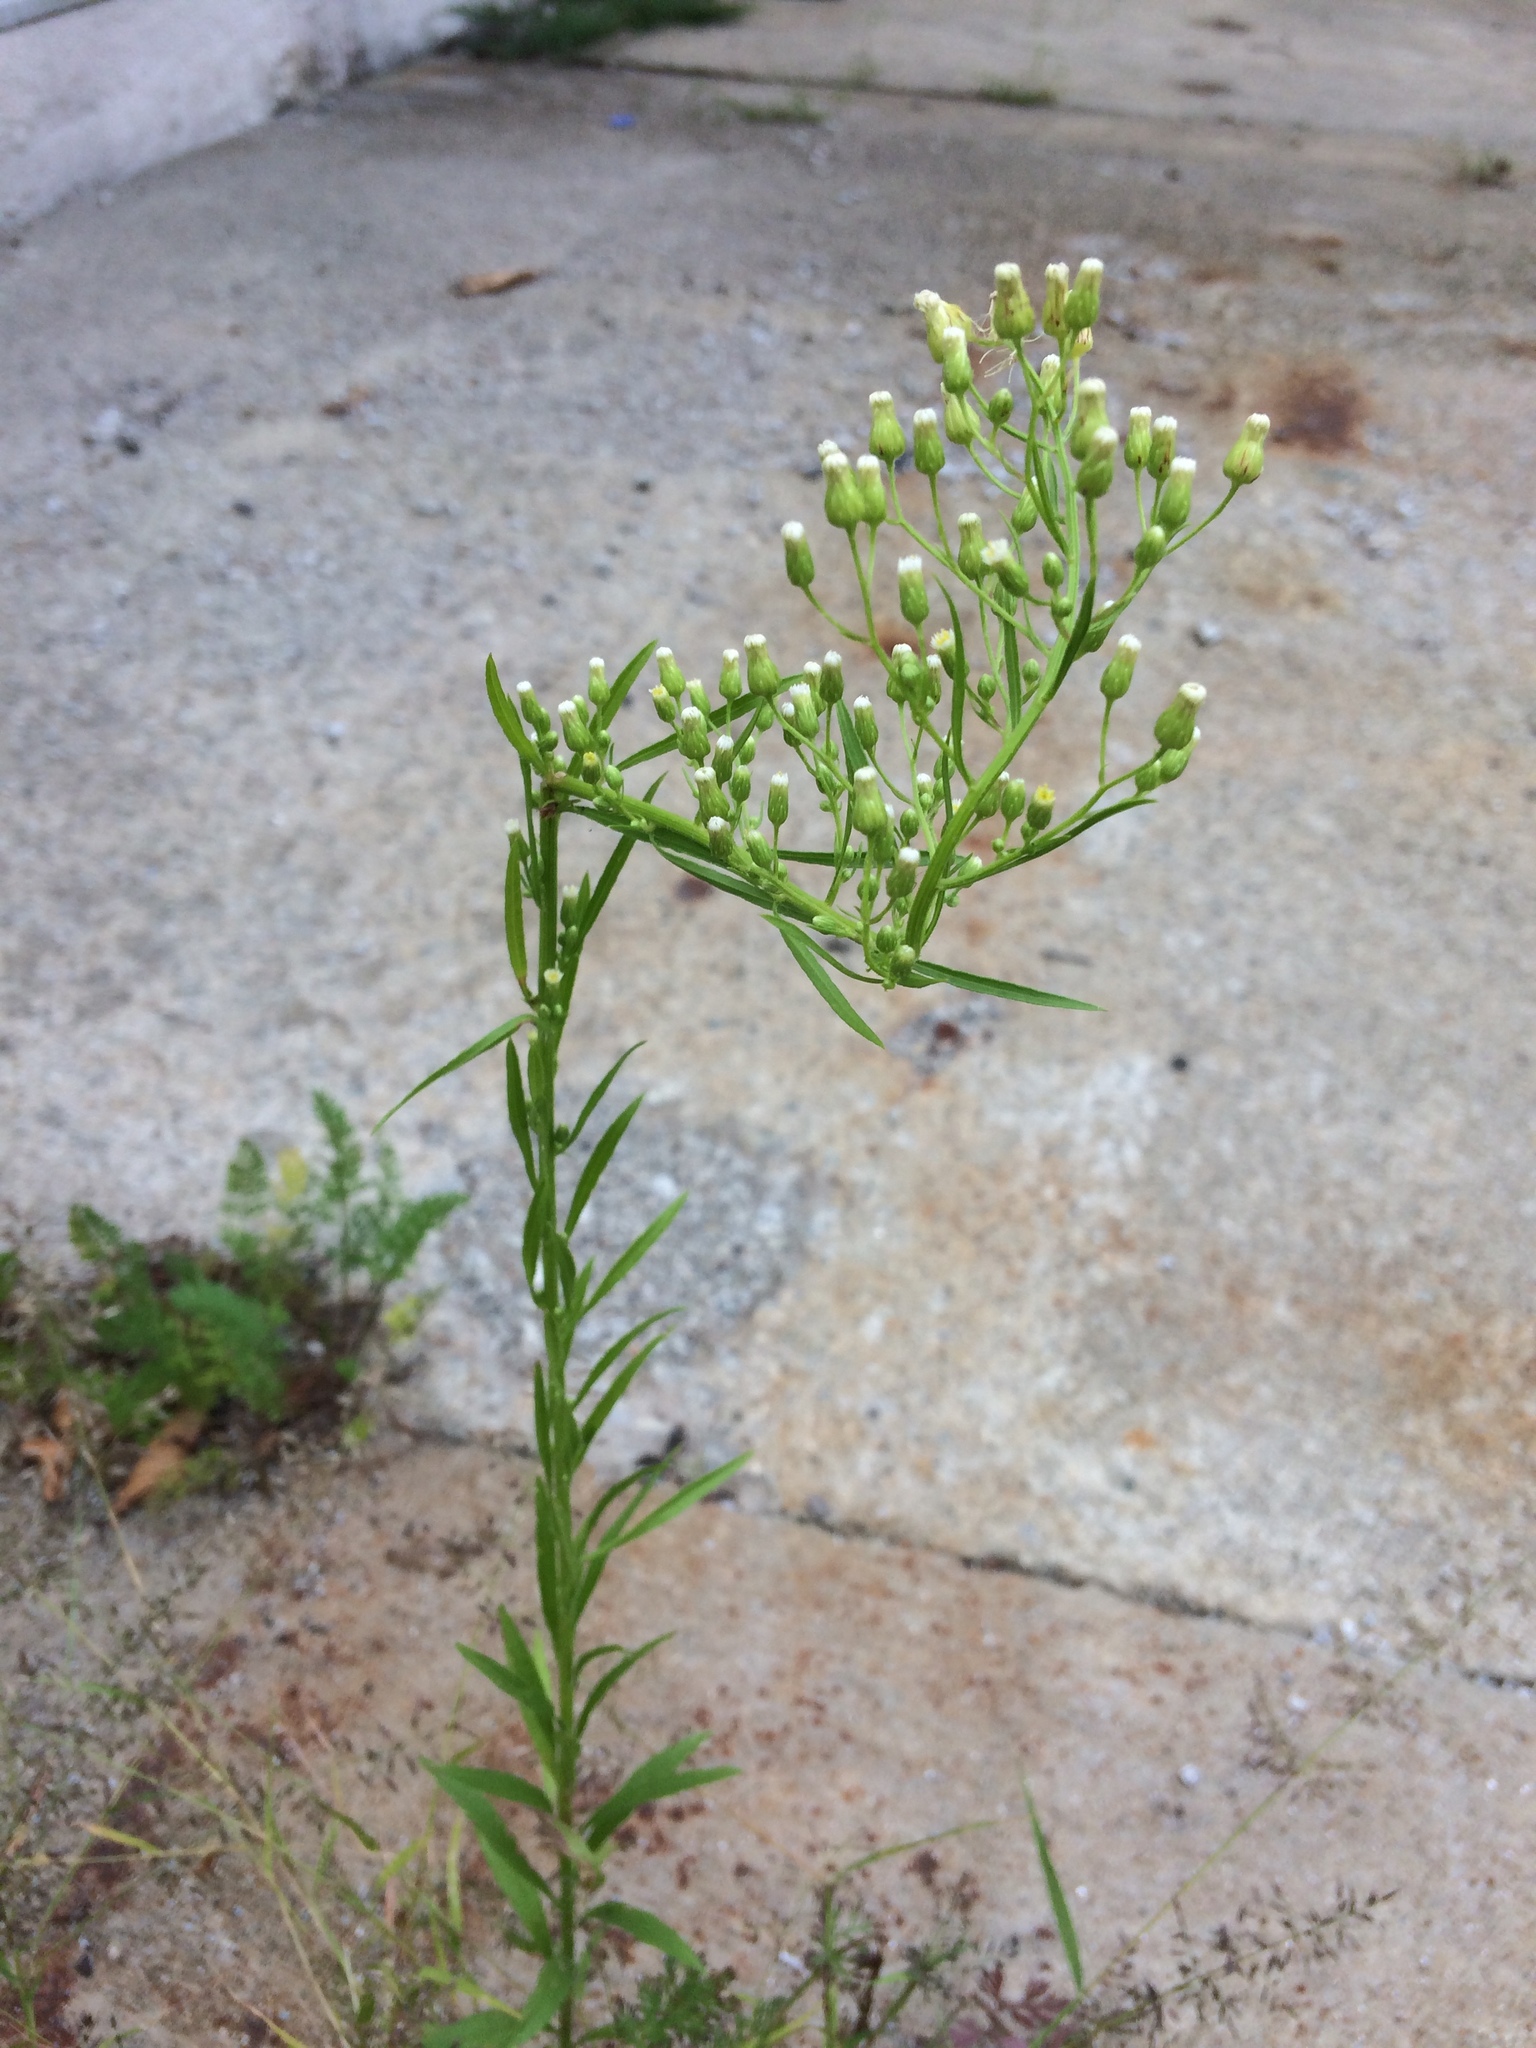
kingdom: Plantae
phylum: Tracheophyta
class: Magnoliopsida
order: Asterales
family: Asteraceae
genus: Erigeron
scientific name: Erigeron canadensis
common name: Canadian fleabane
